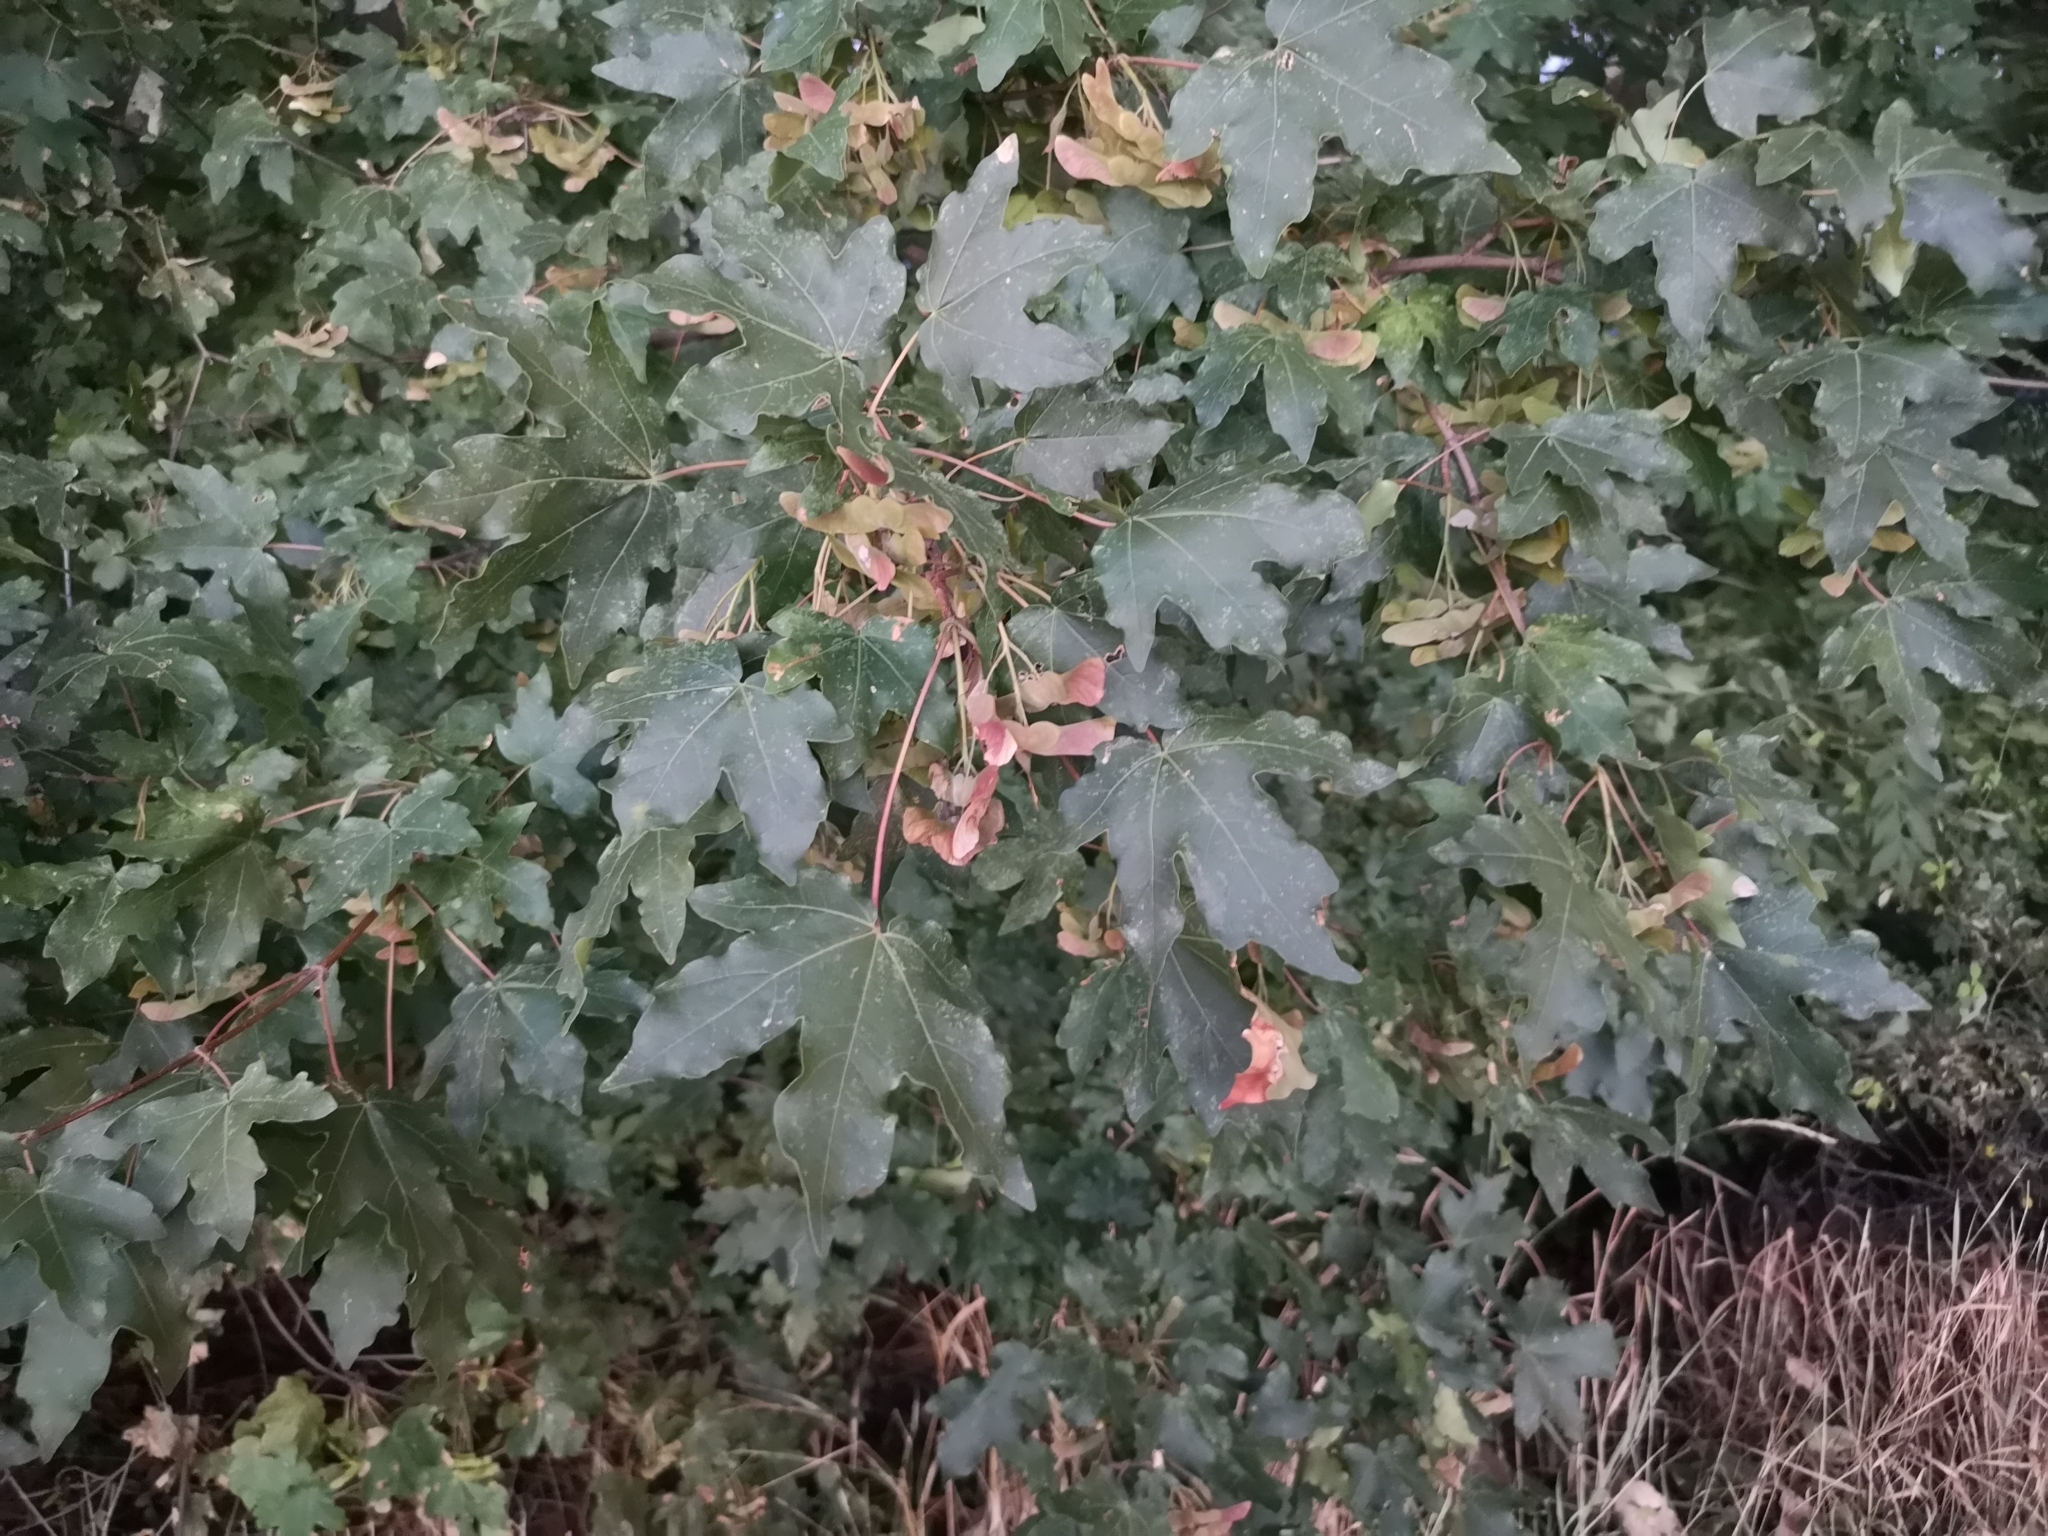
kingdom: Plantae
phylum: Tracheophyta
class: Magnoliopsida
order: Sapindales
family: Sapindaceae
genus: Acer
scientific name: Acer campestre
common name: Field maple
